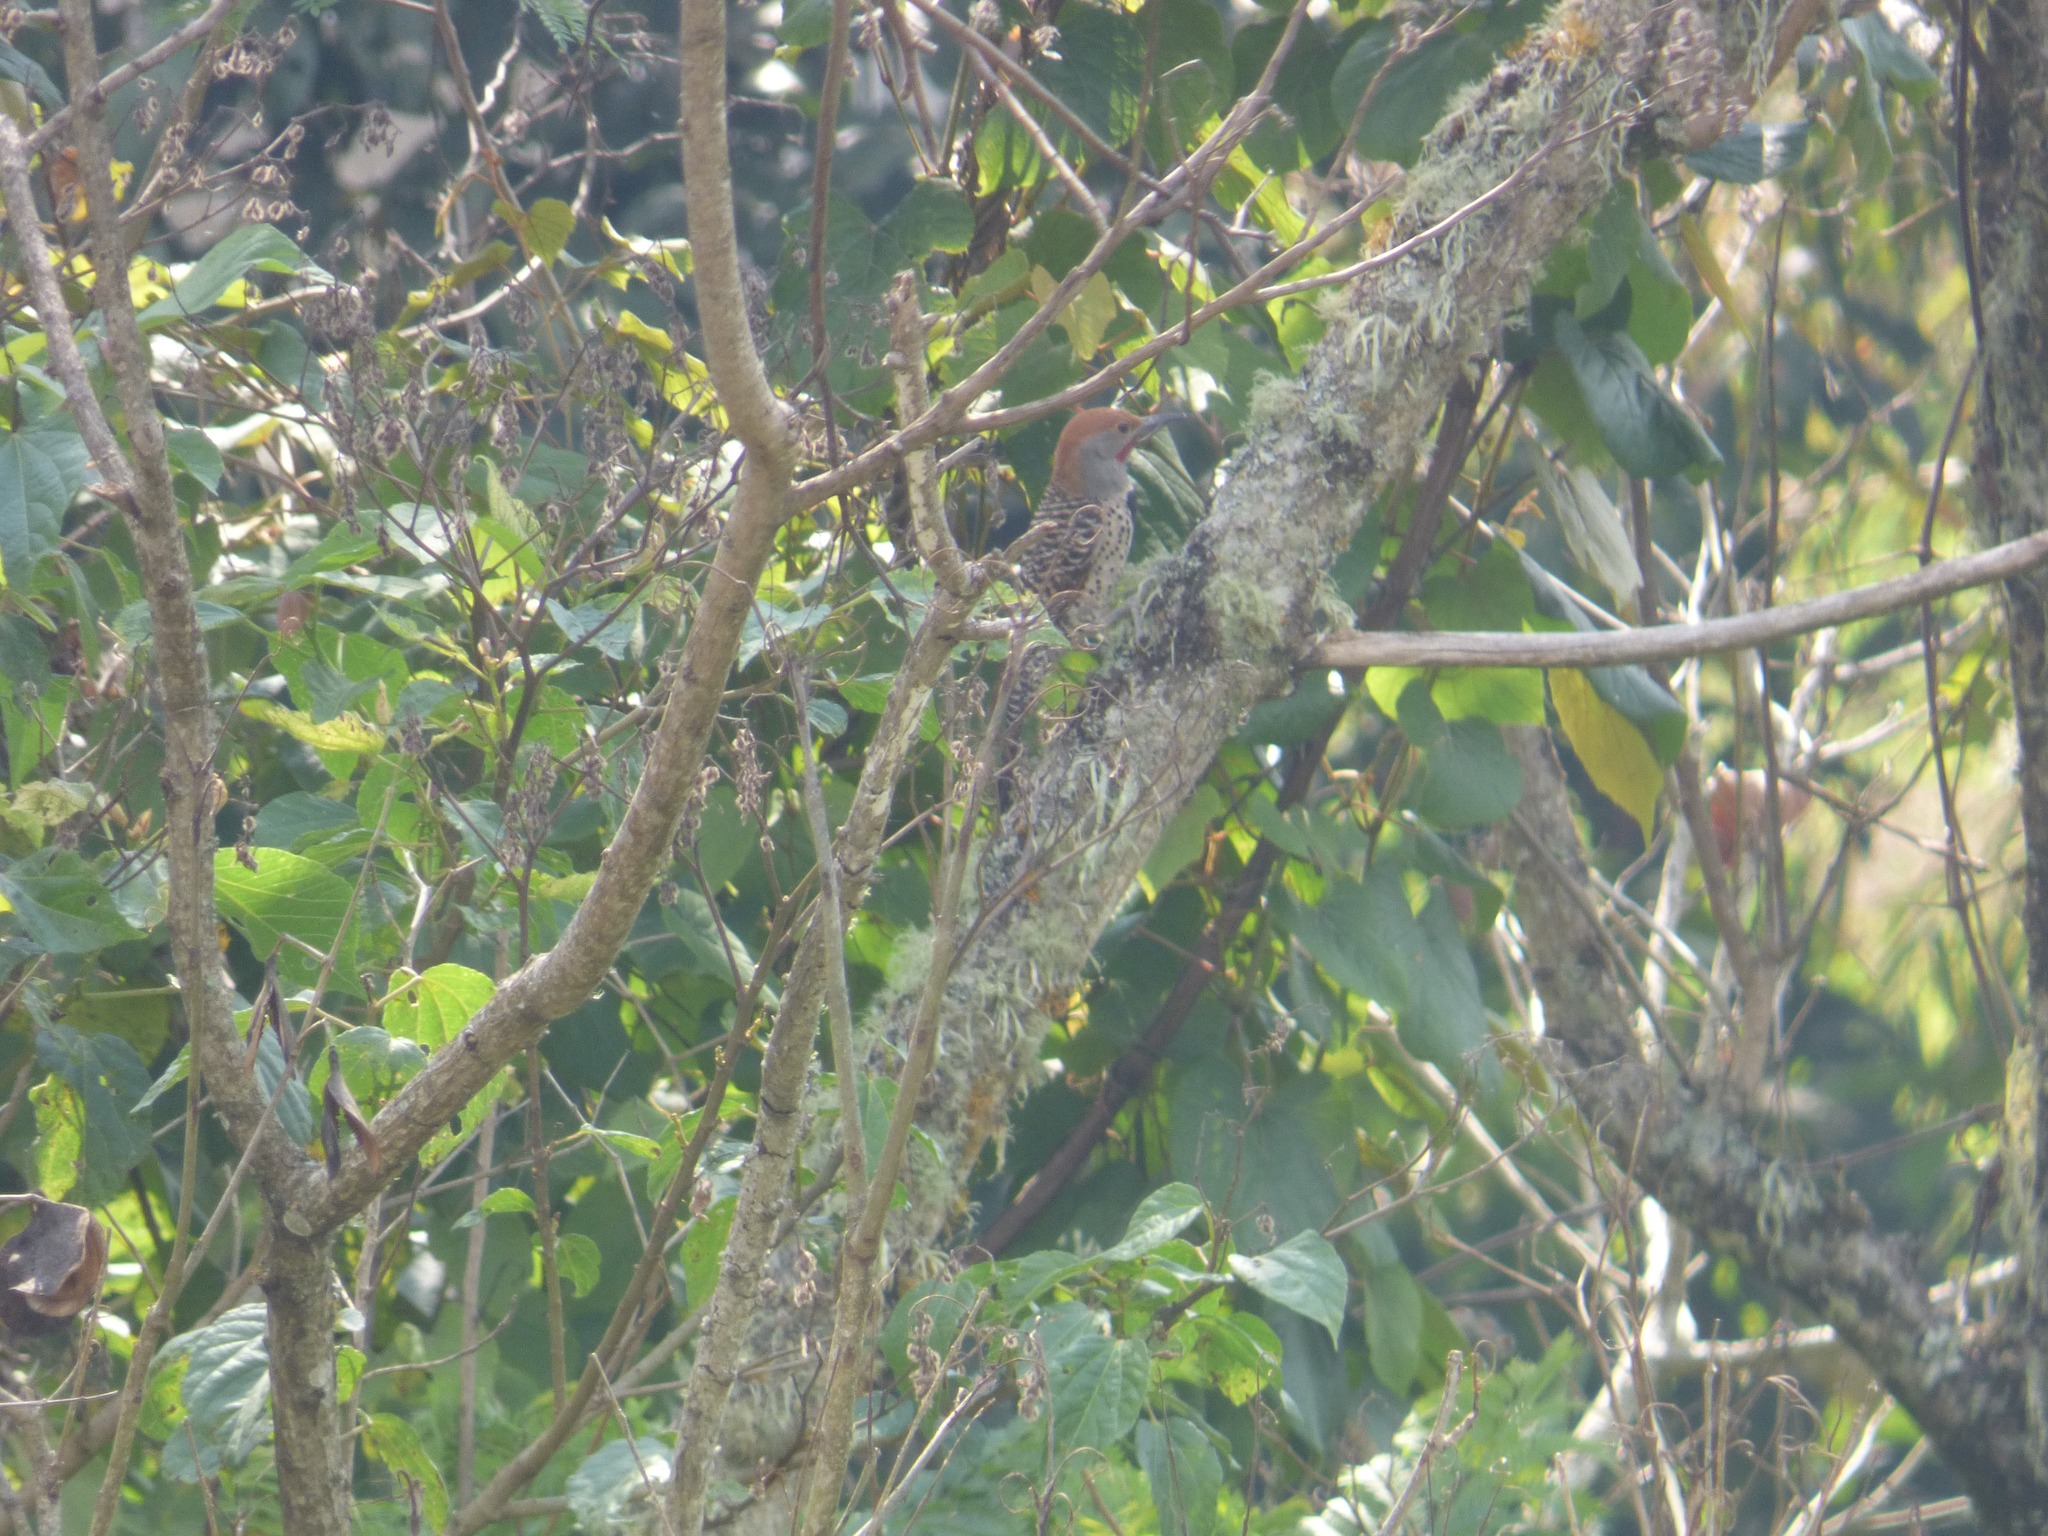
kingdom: Animalia
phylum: Chordata
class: Aves
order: Piciformes
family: Picidae
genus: Colaptes
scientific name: Colaptes auratus
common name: Northern flicker
